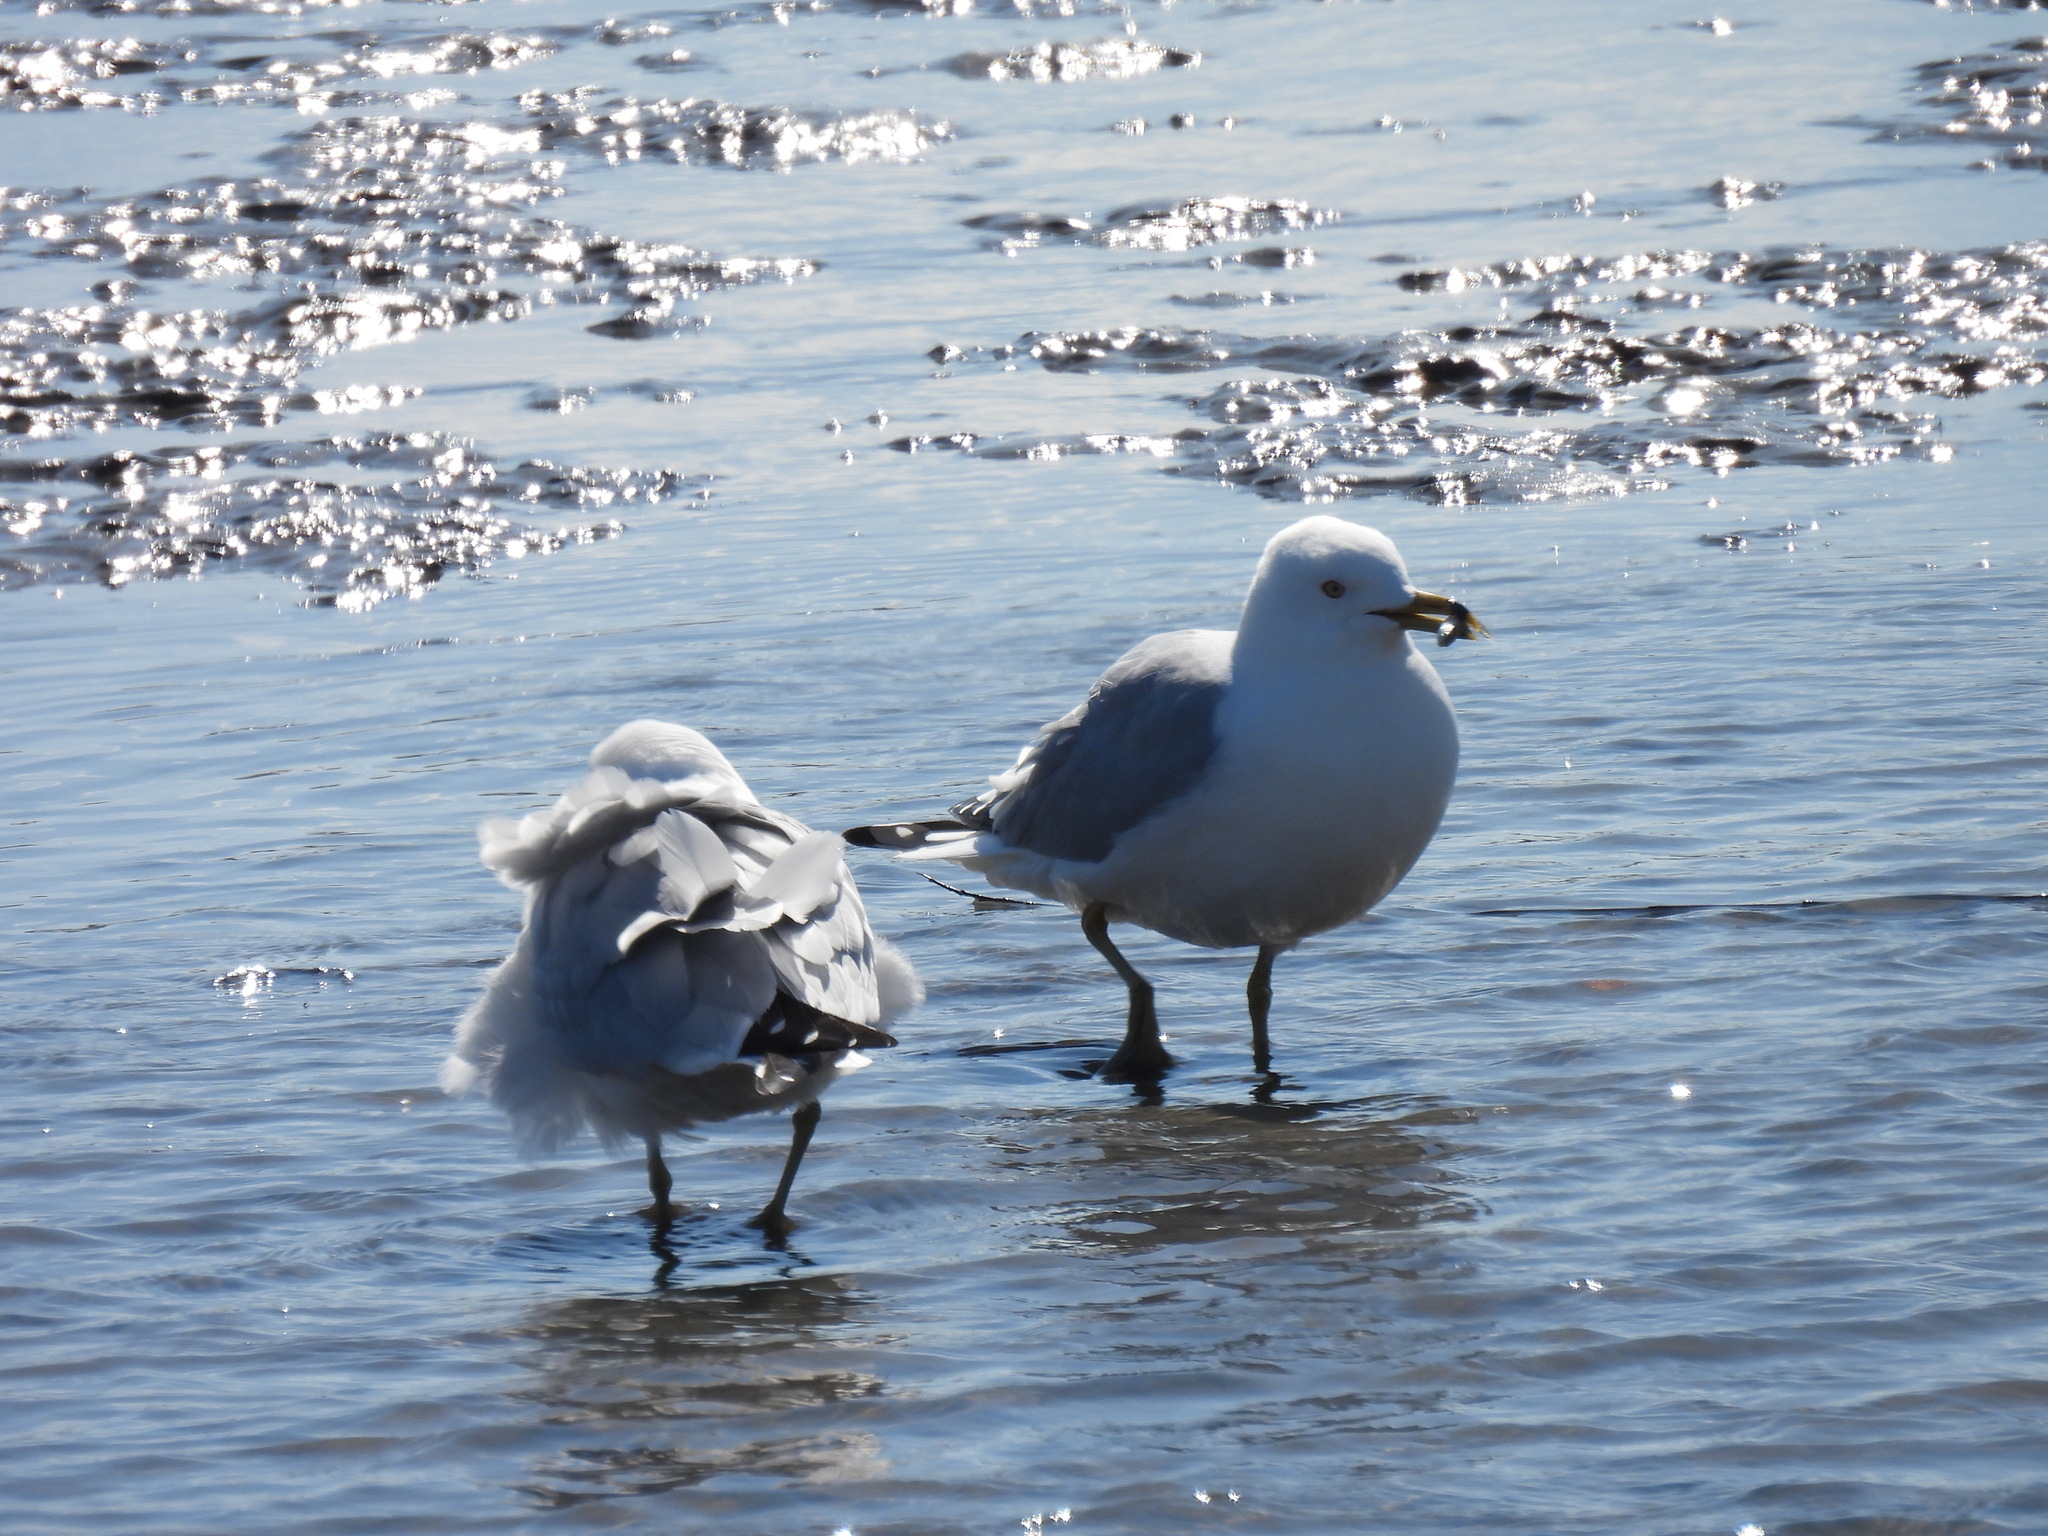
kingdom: Animalia
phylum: Chordata
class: Aves
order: Charadriiformes
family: Laridae
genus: Larus
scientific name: Larus delawarensis
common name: Ring-billed gull
